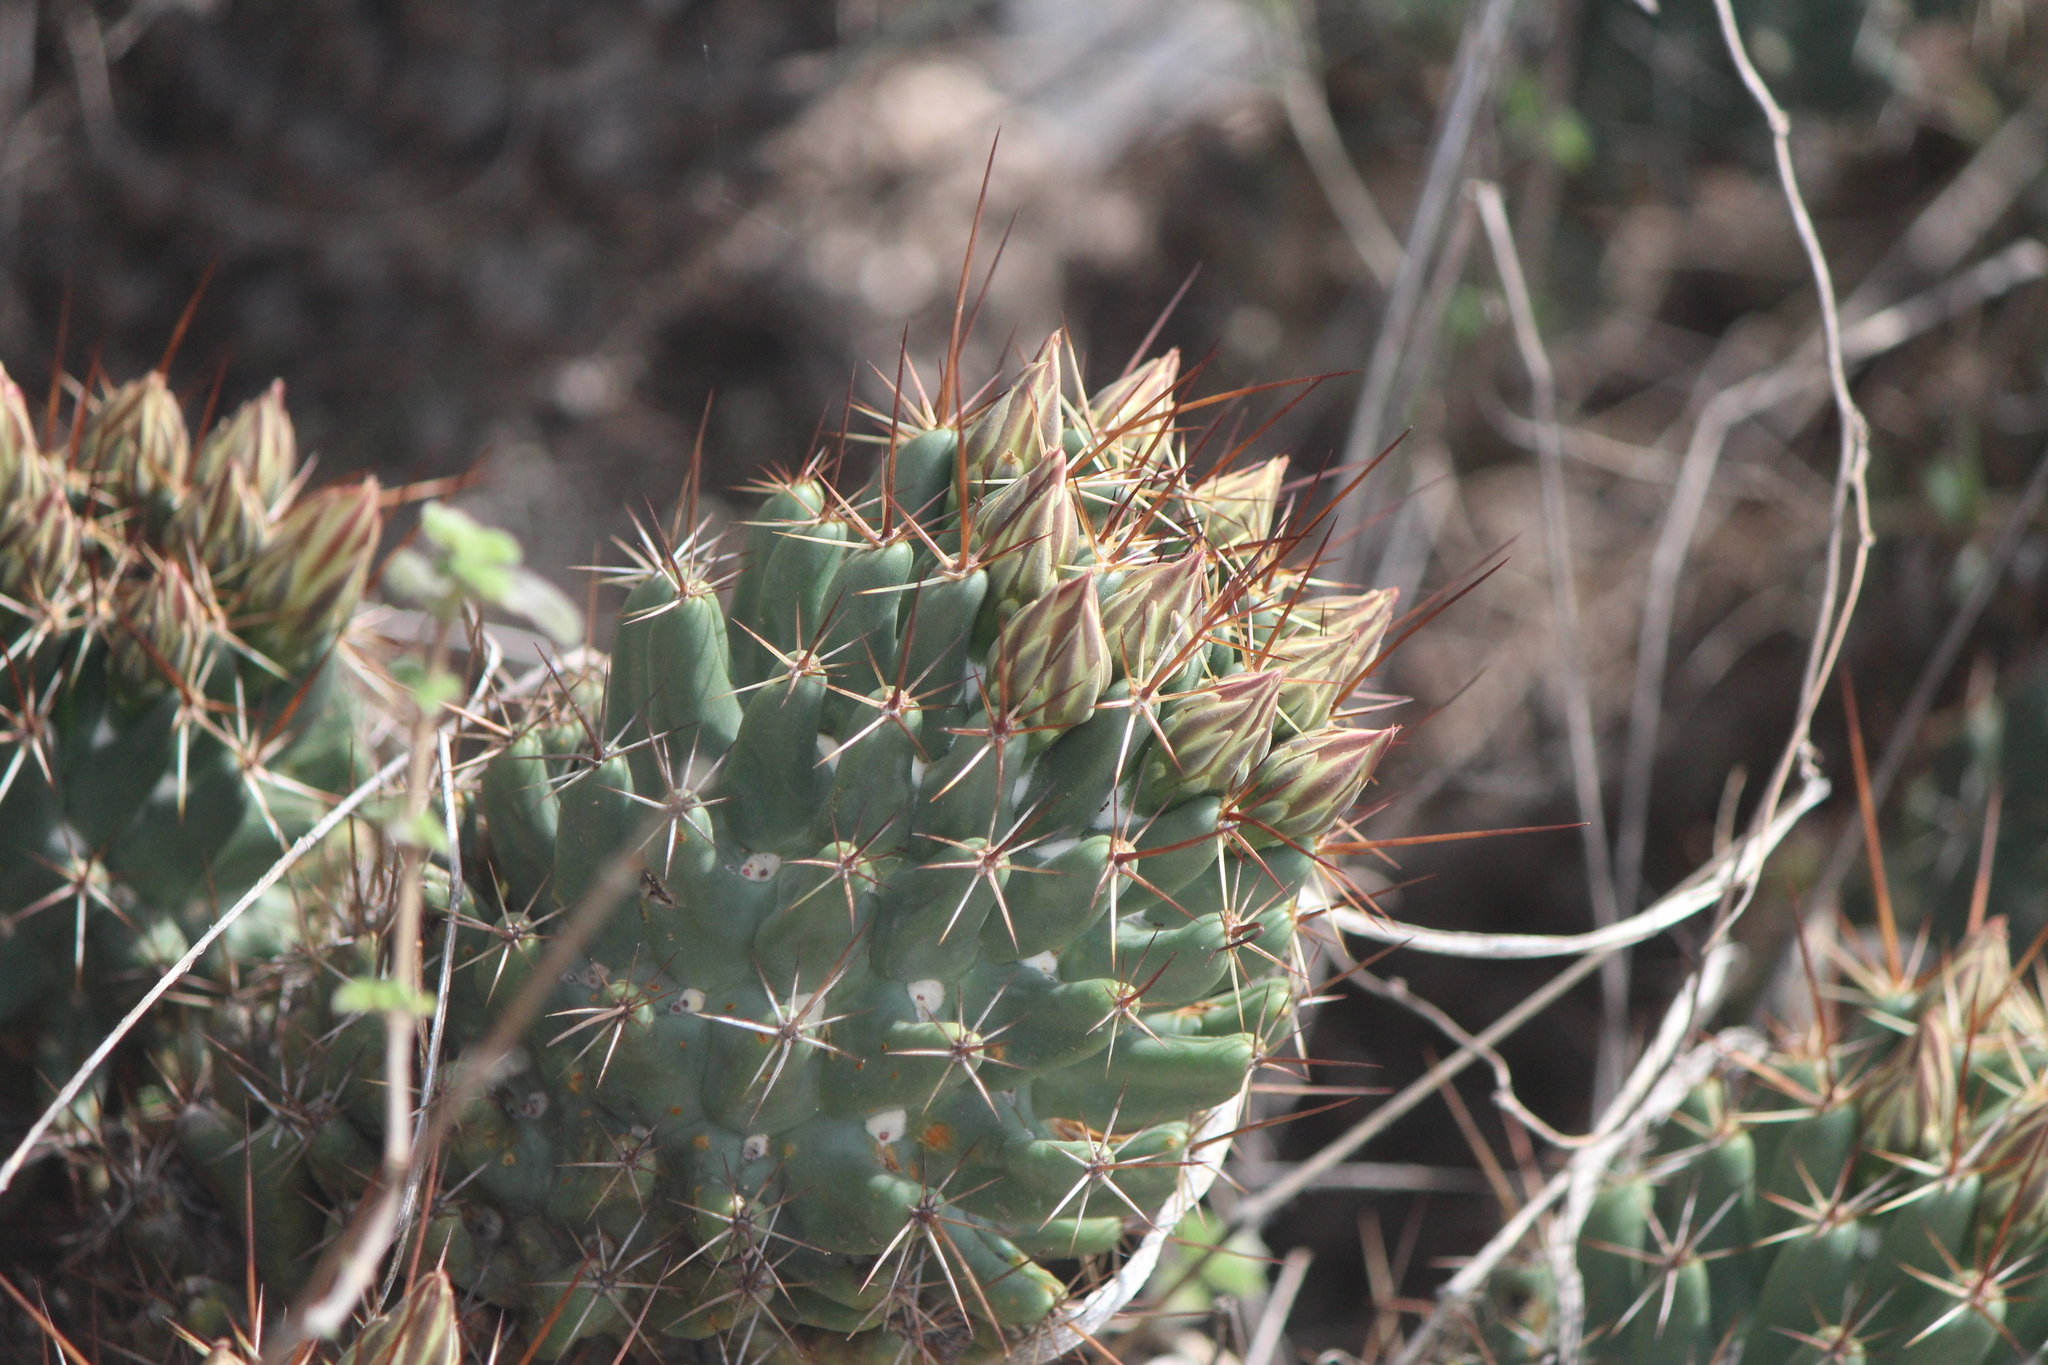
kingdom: Plantae
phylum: Tracheophyta
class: Magnoliopsida
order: Caryophyllales
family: Cactaceae
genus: Coryphantha
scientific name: Coryphantha octacantha
